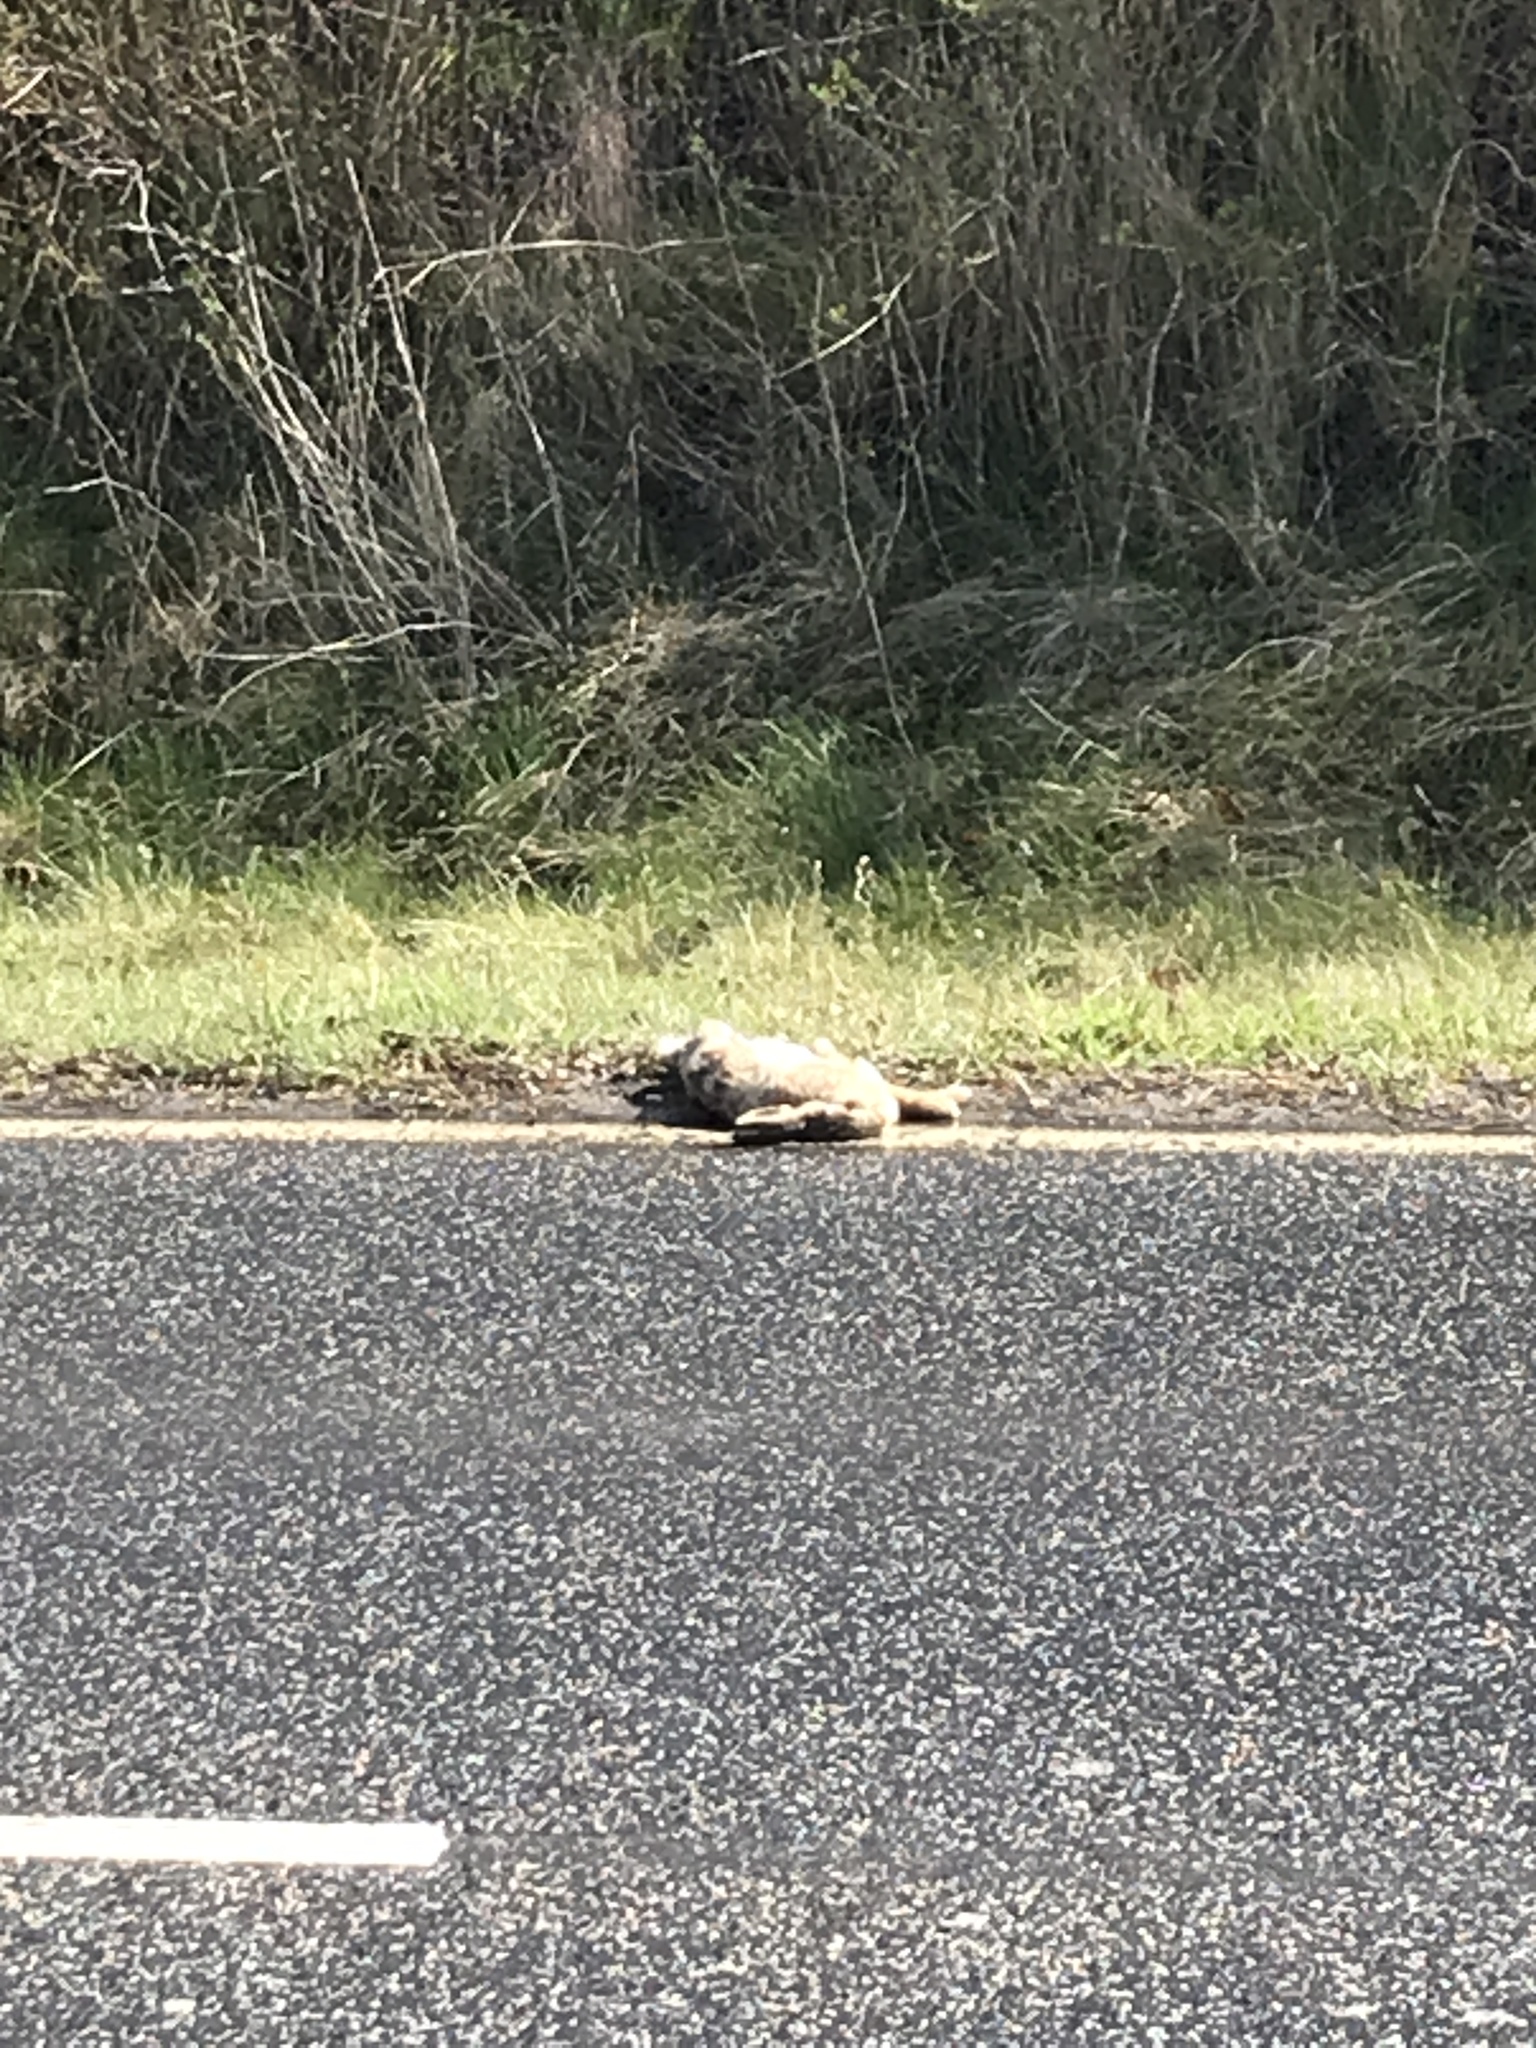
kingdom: Animalia
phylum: Chordata
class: Mammalia
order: Lagomorpha
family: Leporidae
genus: Oryctolagus
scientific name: Oryctolagus cuniculus
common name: European rabbit
